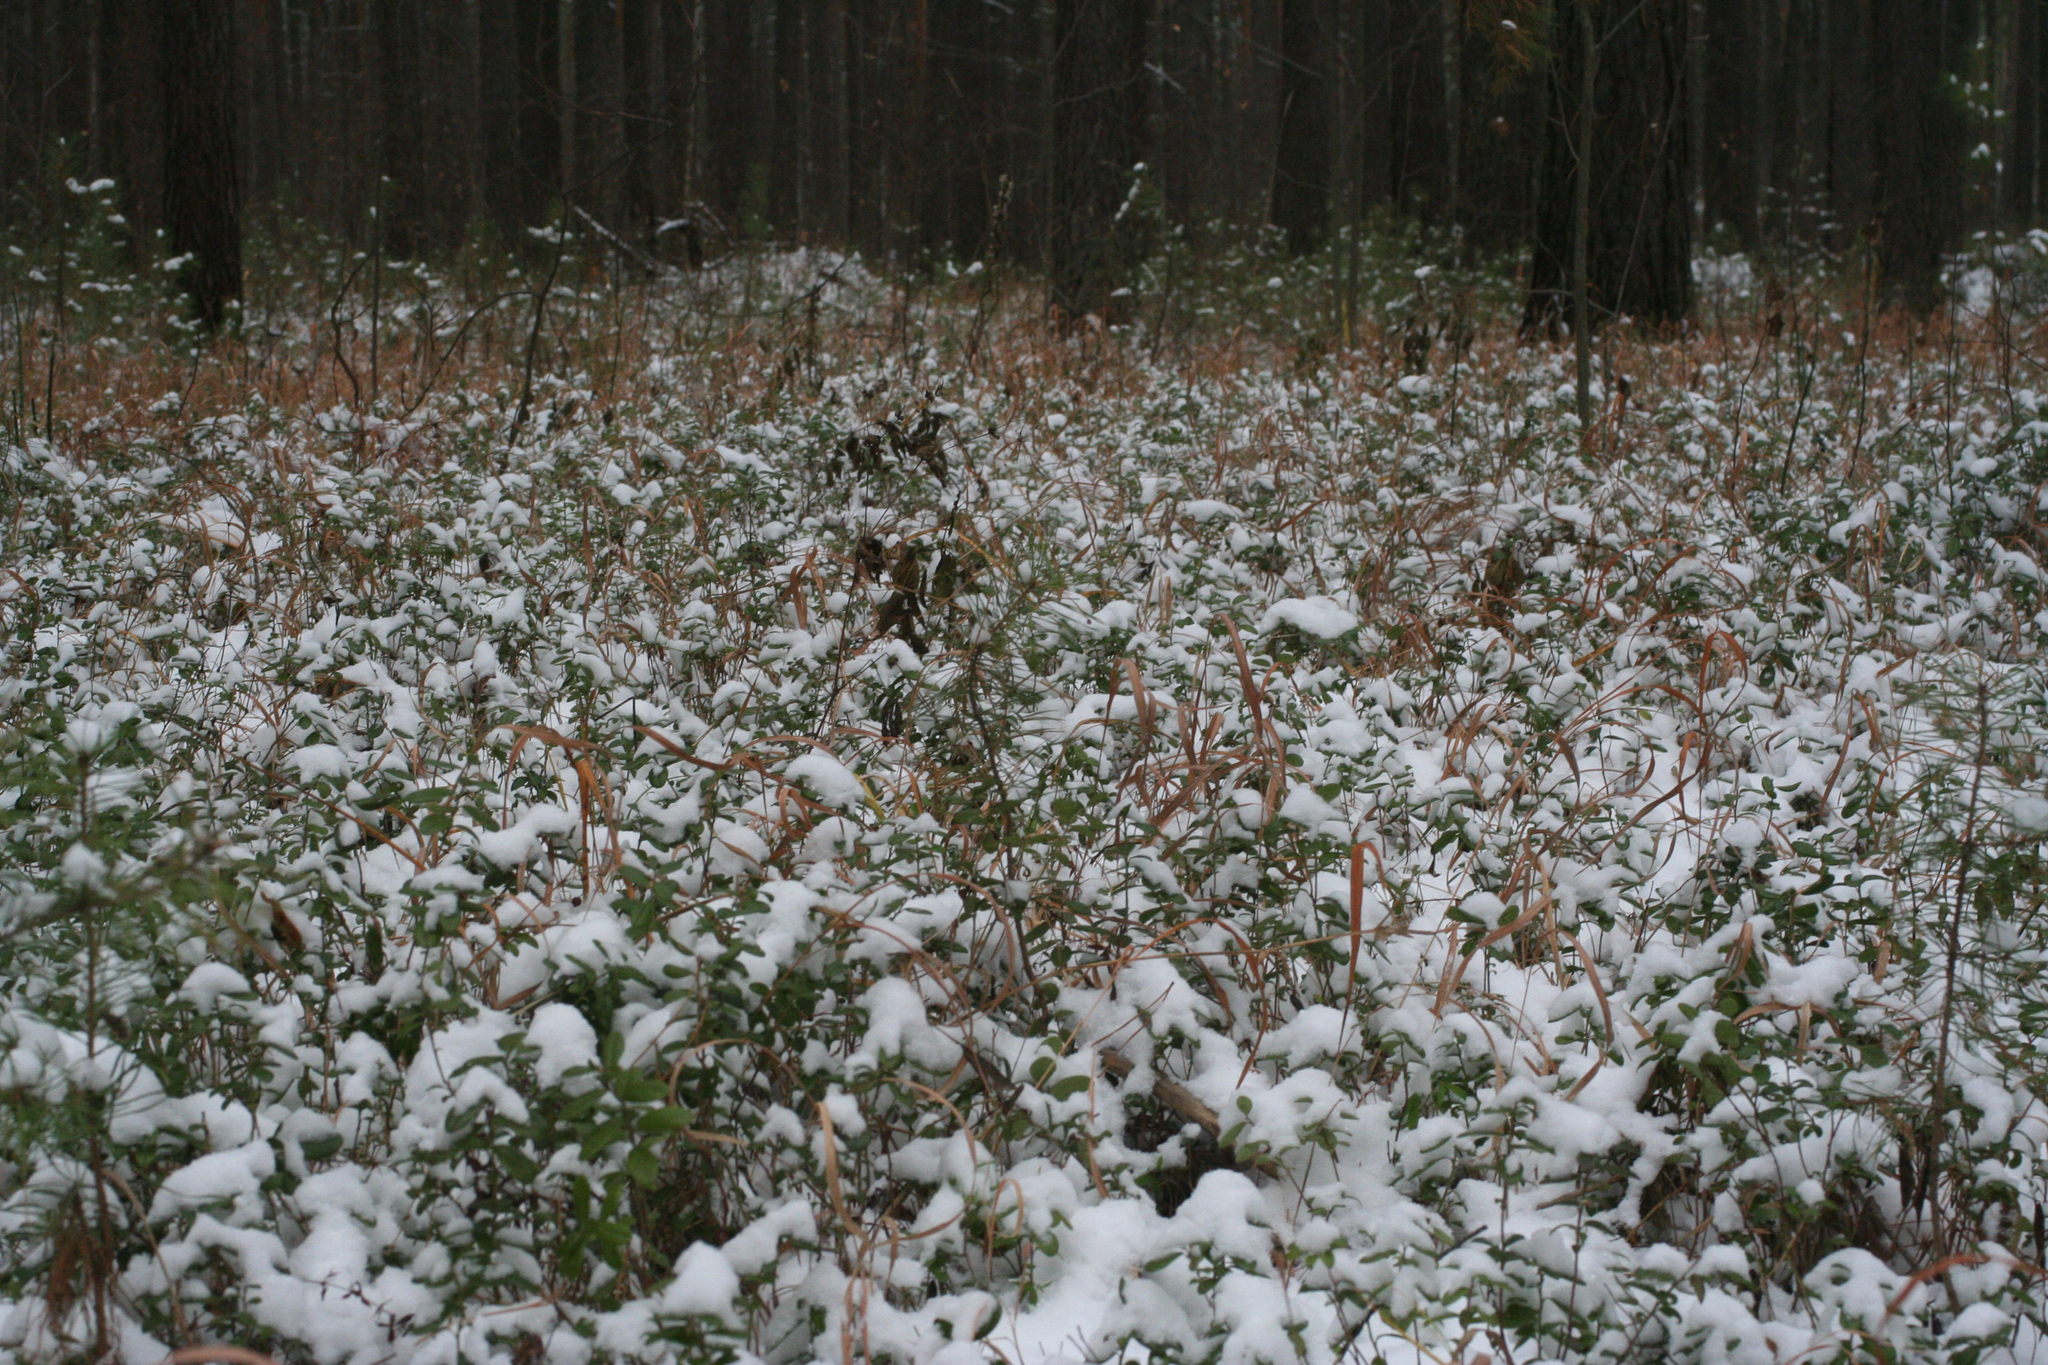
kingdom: Plantae
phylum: Tracheophyta
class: Magnoliopsida
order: Ericales
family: Ericaceae
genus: Vaccinium
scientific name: Vaccinium vitis-idaea
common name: Cowberry
